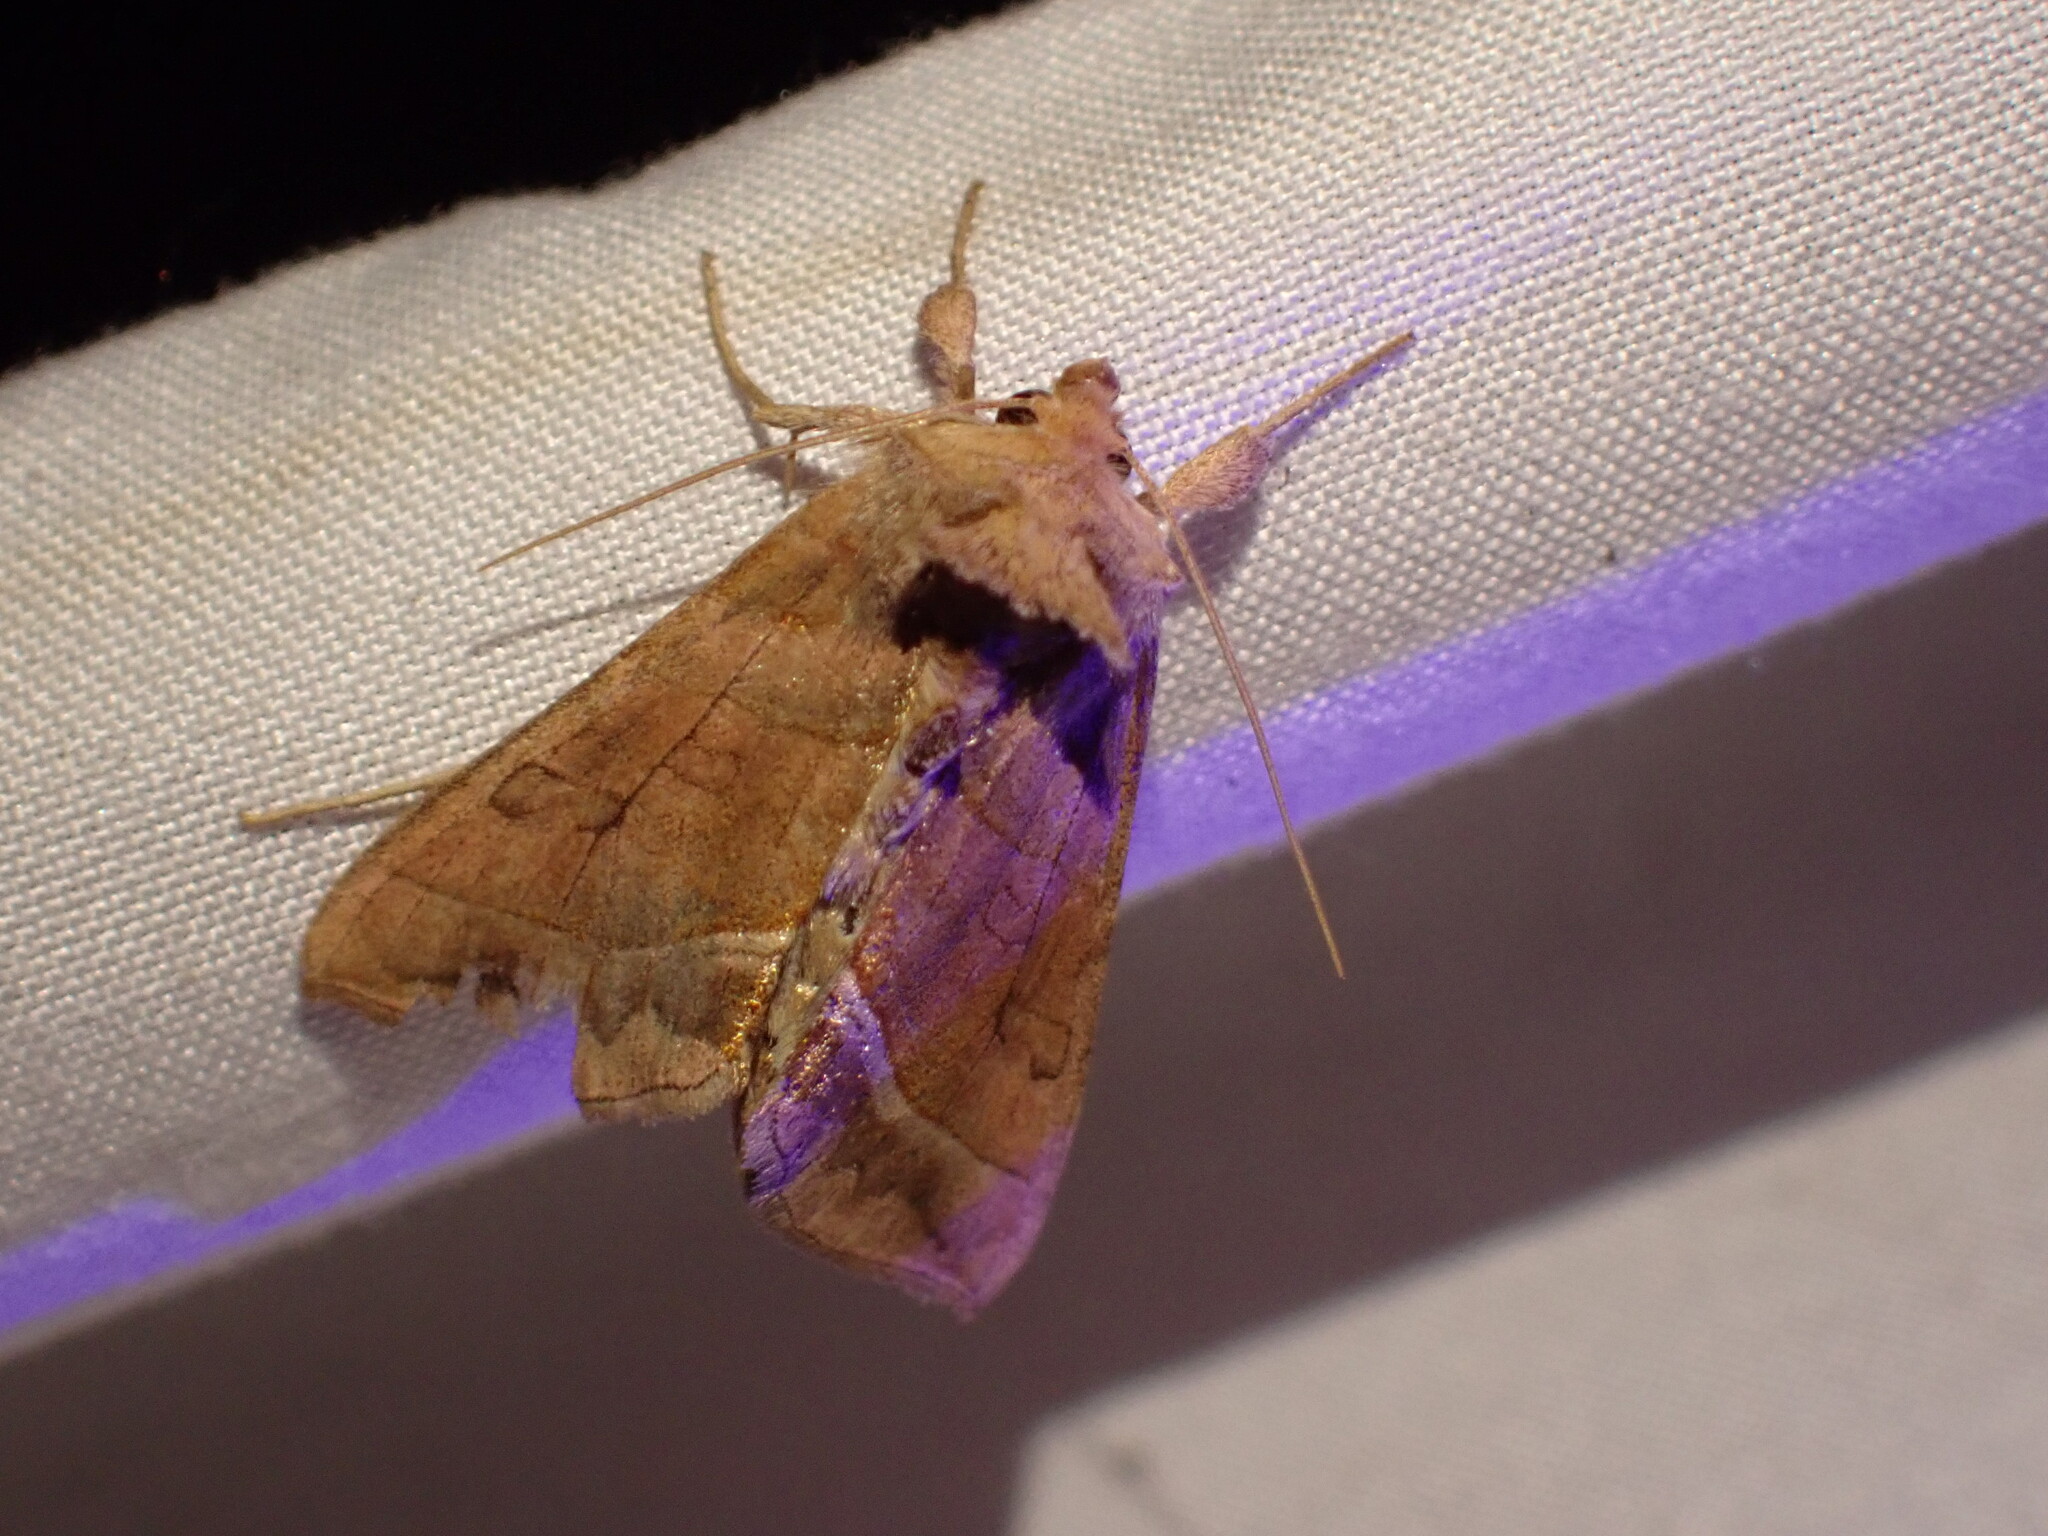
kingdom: Animalia
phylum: Arthropoda
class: Insecta
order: Lepidoptera
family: Noctuidae
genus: Diachrysia
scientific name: Diachrysia aereoides
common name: Dark-spotted looper moth
